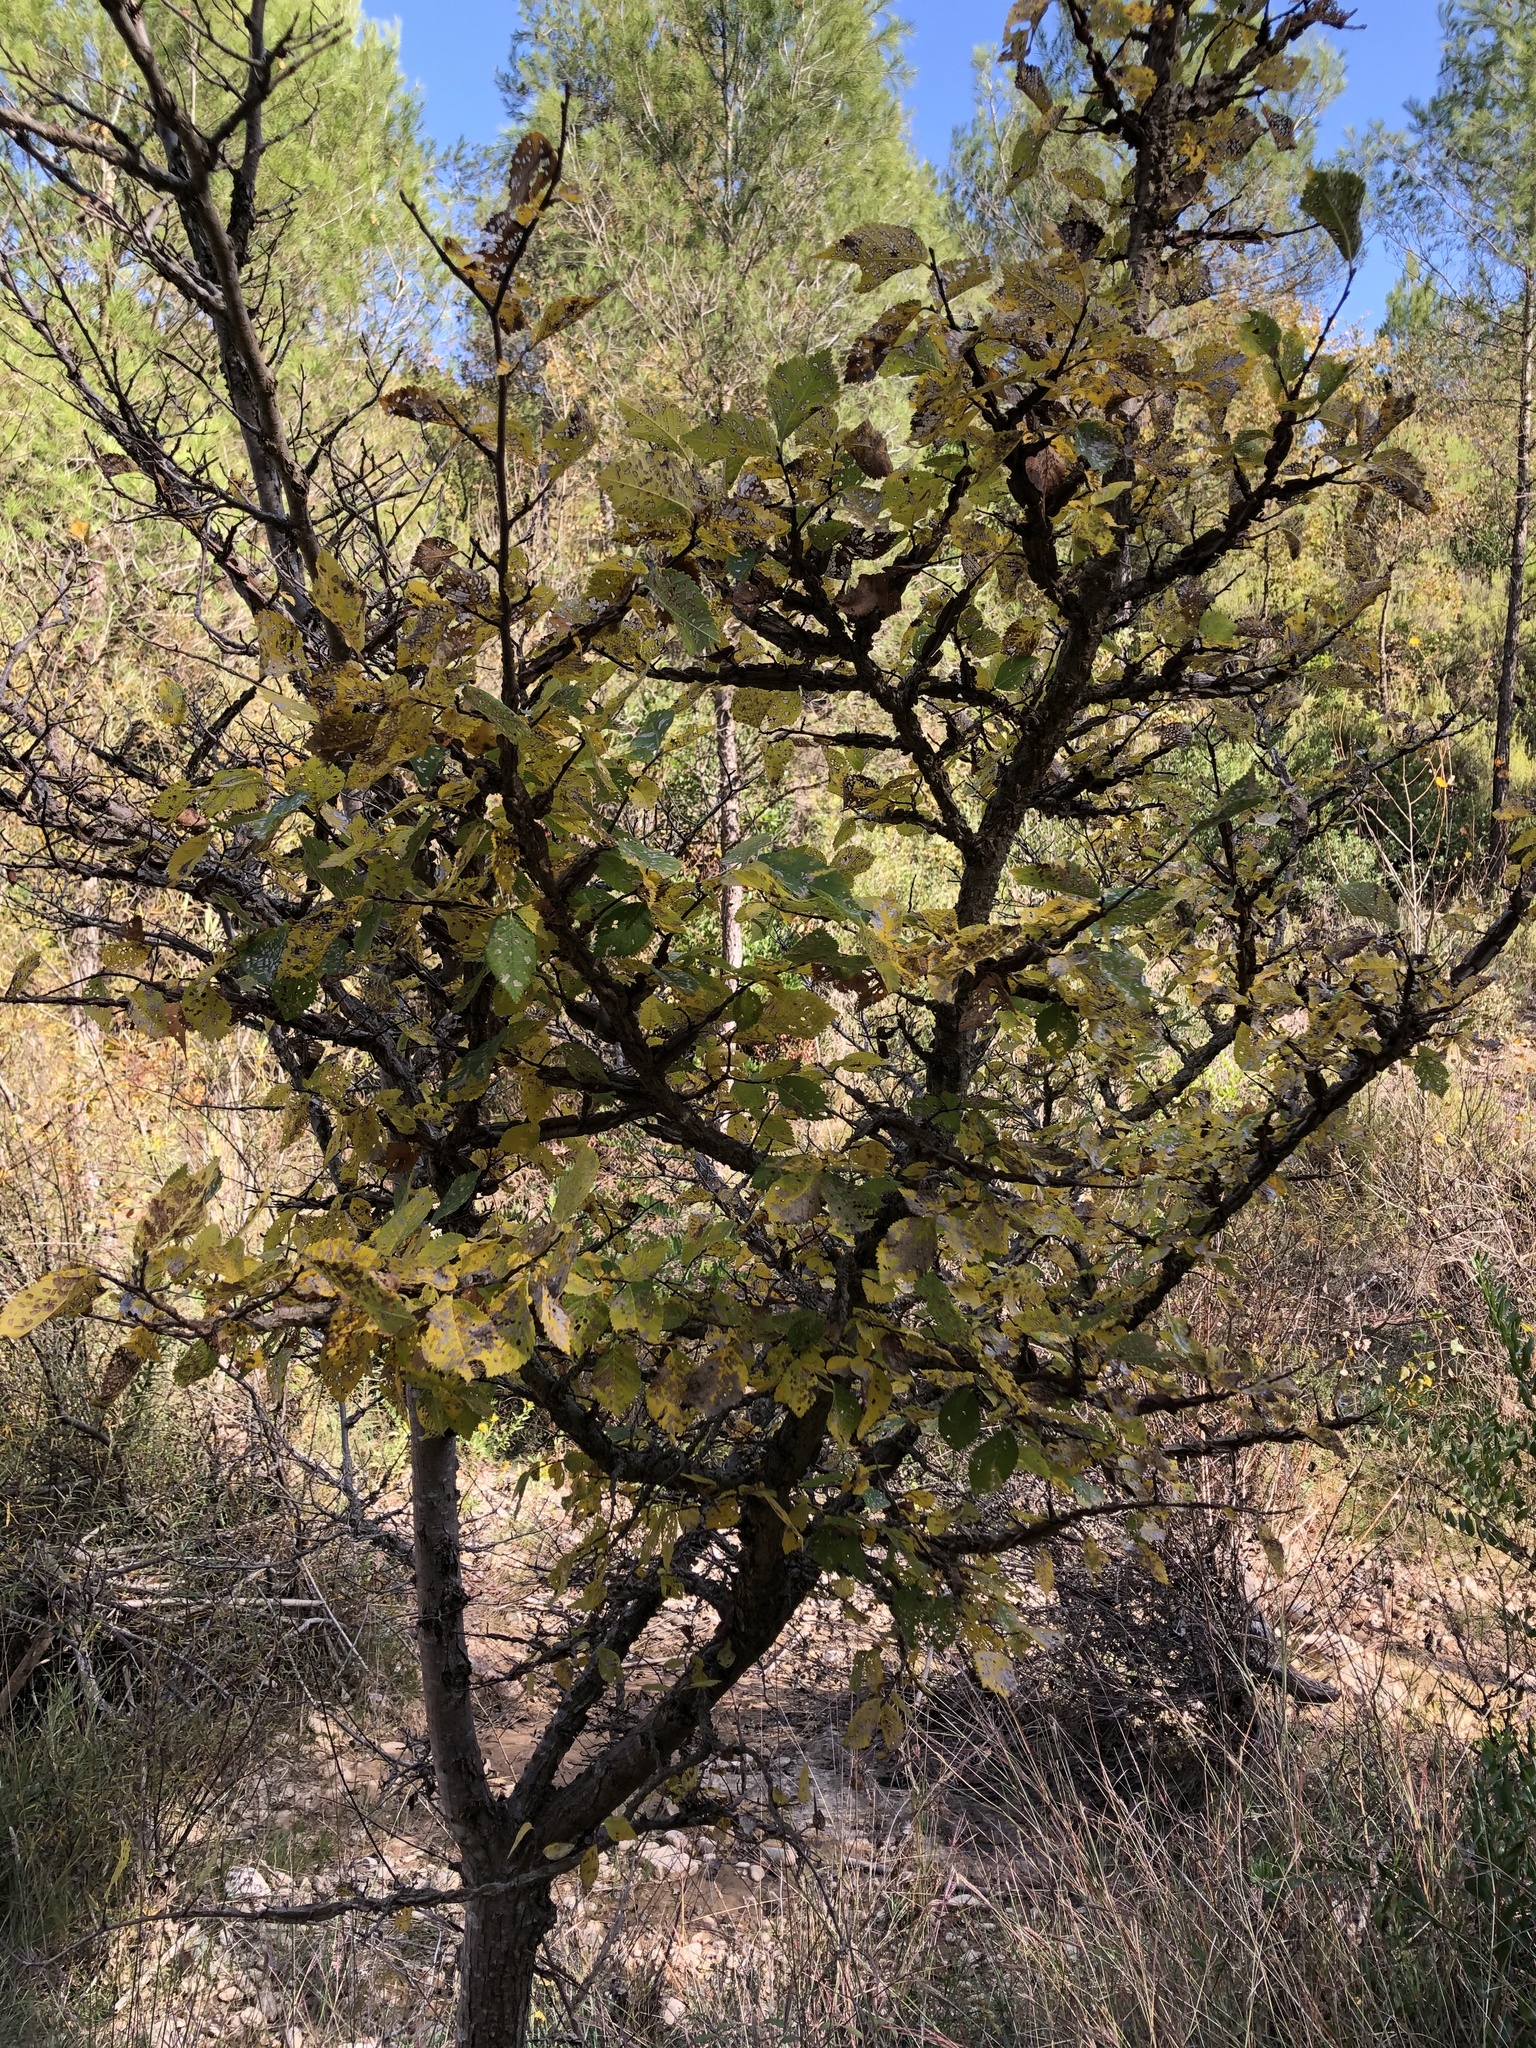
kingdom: Plantae
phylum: Tracheophyta
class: Magnoliopsida
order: Rosales
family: Ulmaceae
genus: Ulmus
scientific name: Ulmus minor
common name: Small-leaved elm
